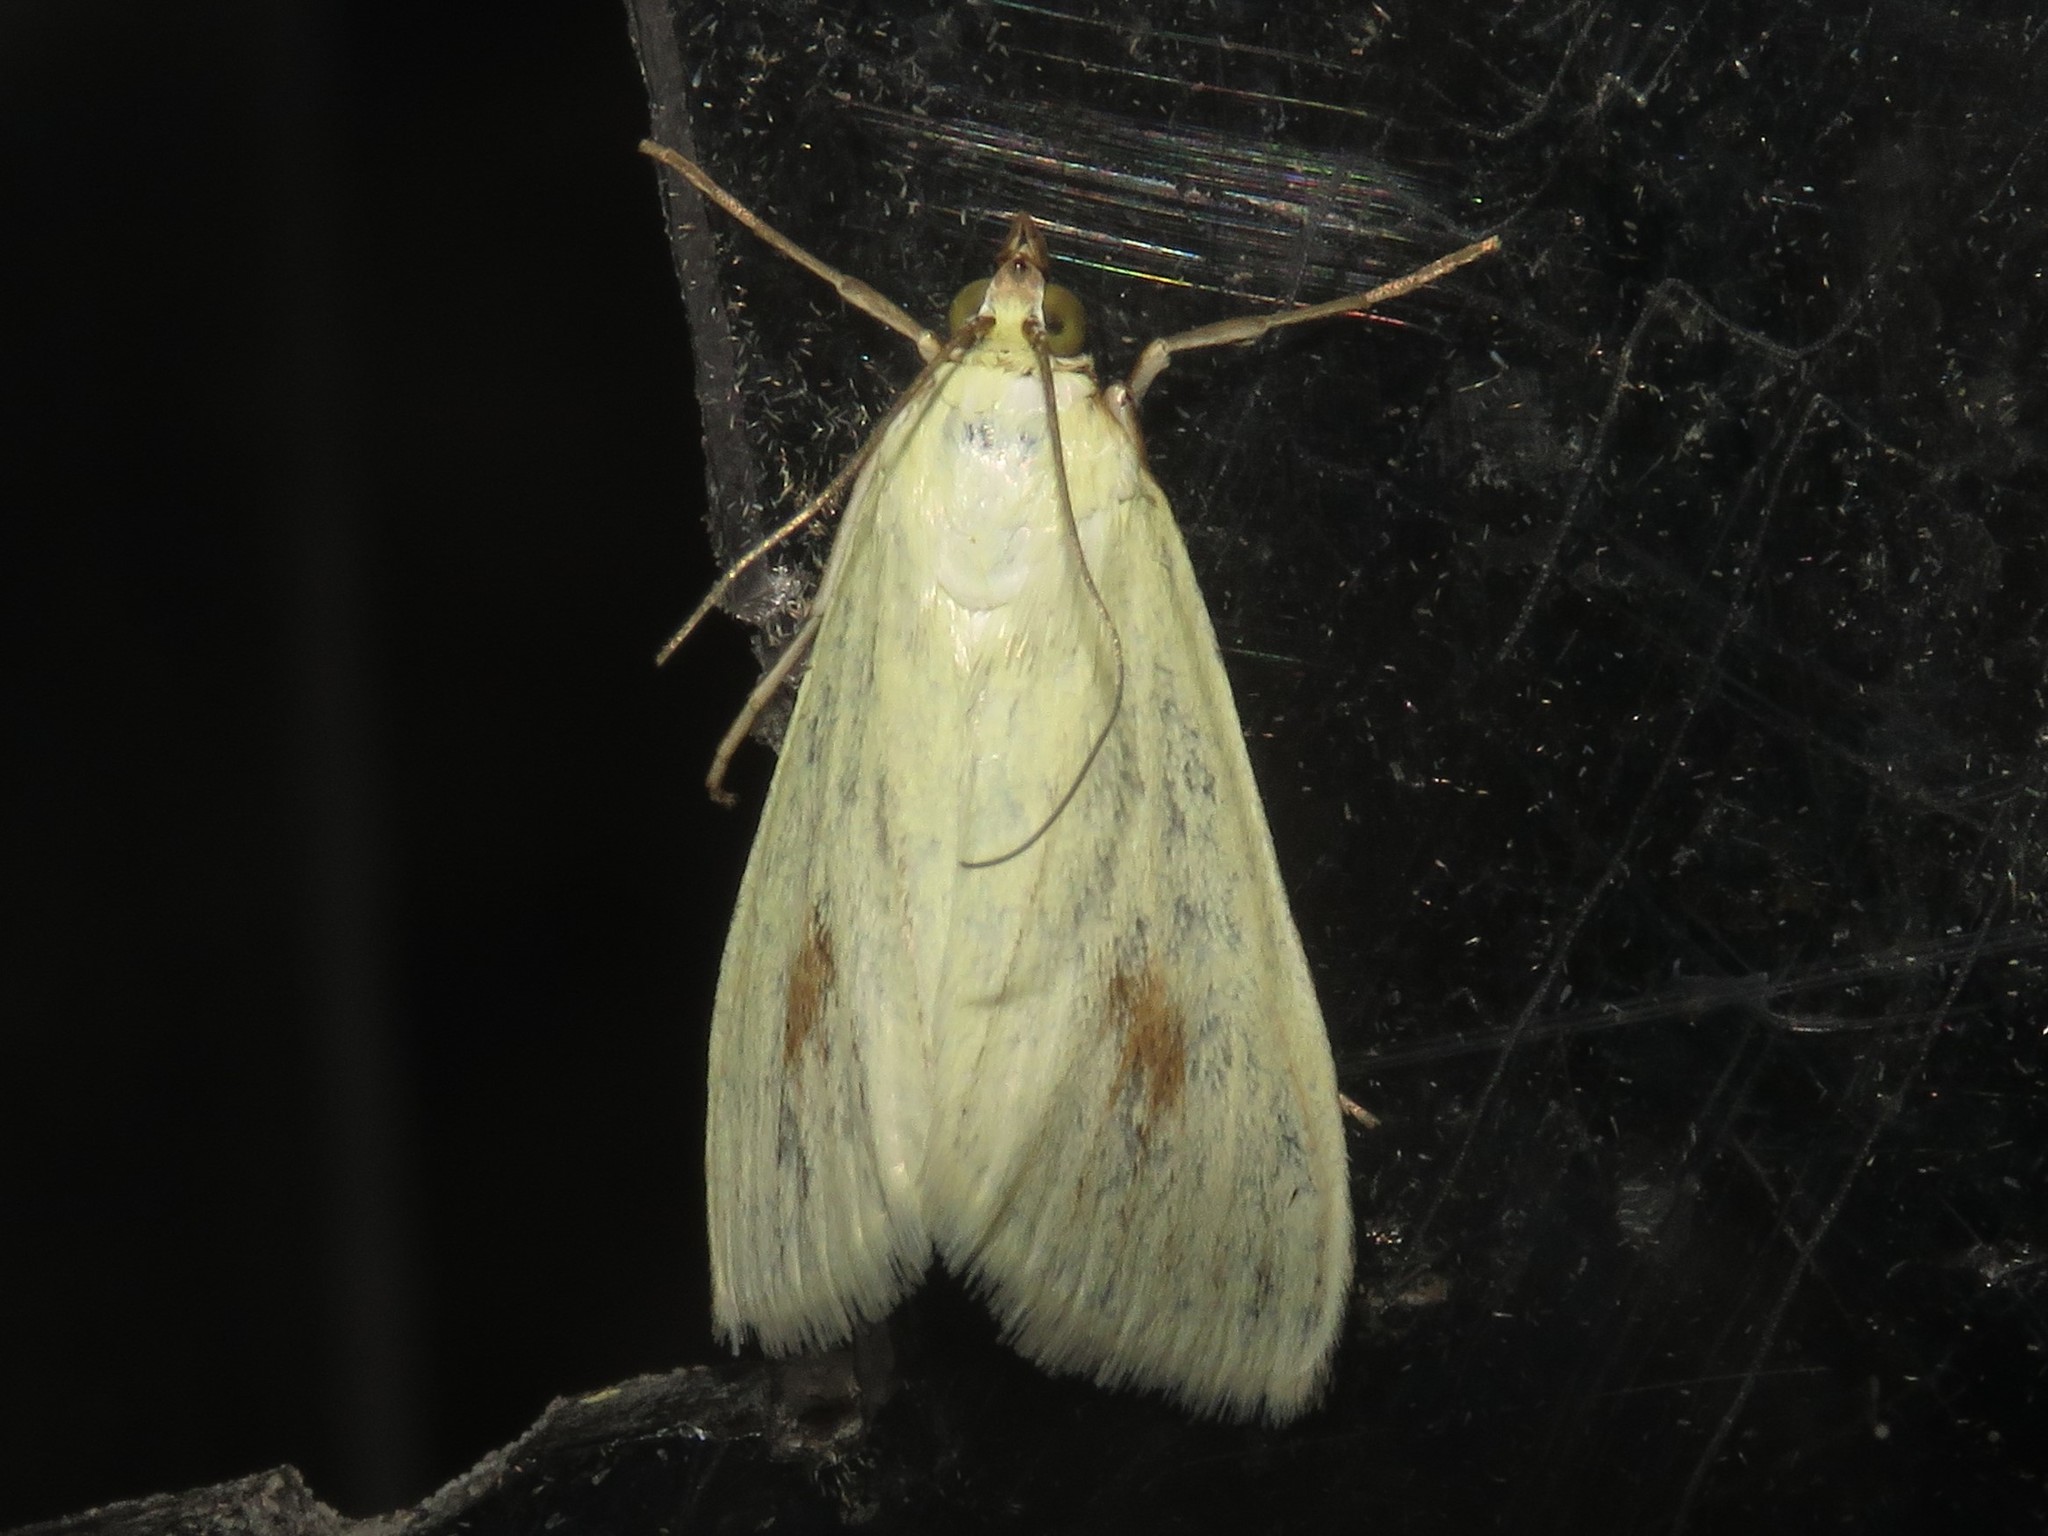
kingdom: Animalia
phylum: Arthropoda
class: Insecta
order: Lepidoptera
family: Crambidae
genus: Sitochroa
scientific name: Sitochroa palealis
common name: Greenish-yellow sitochroa moth
